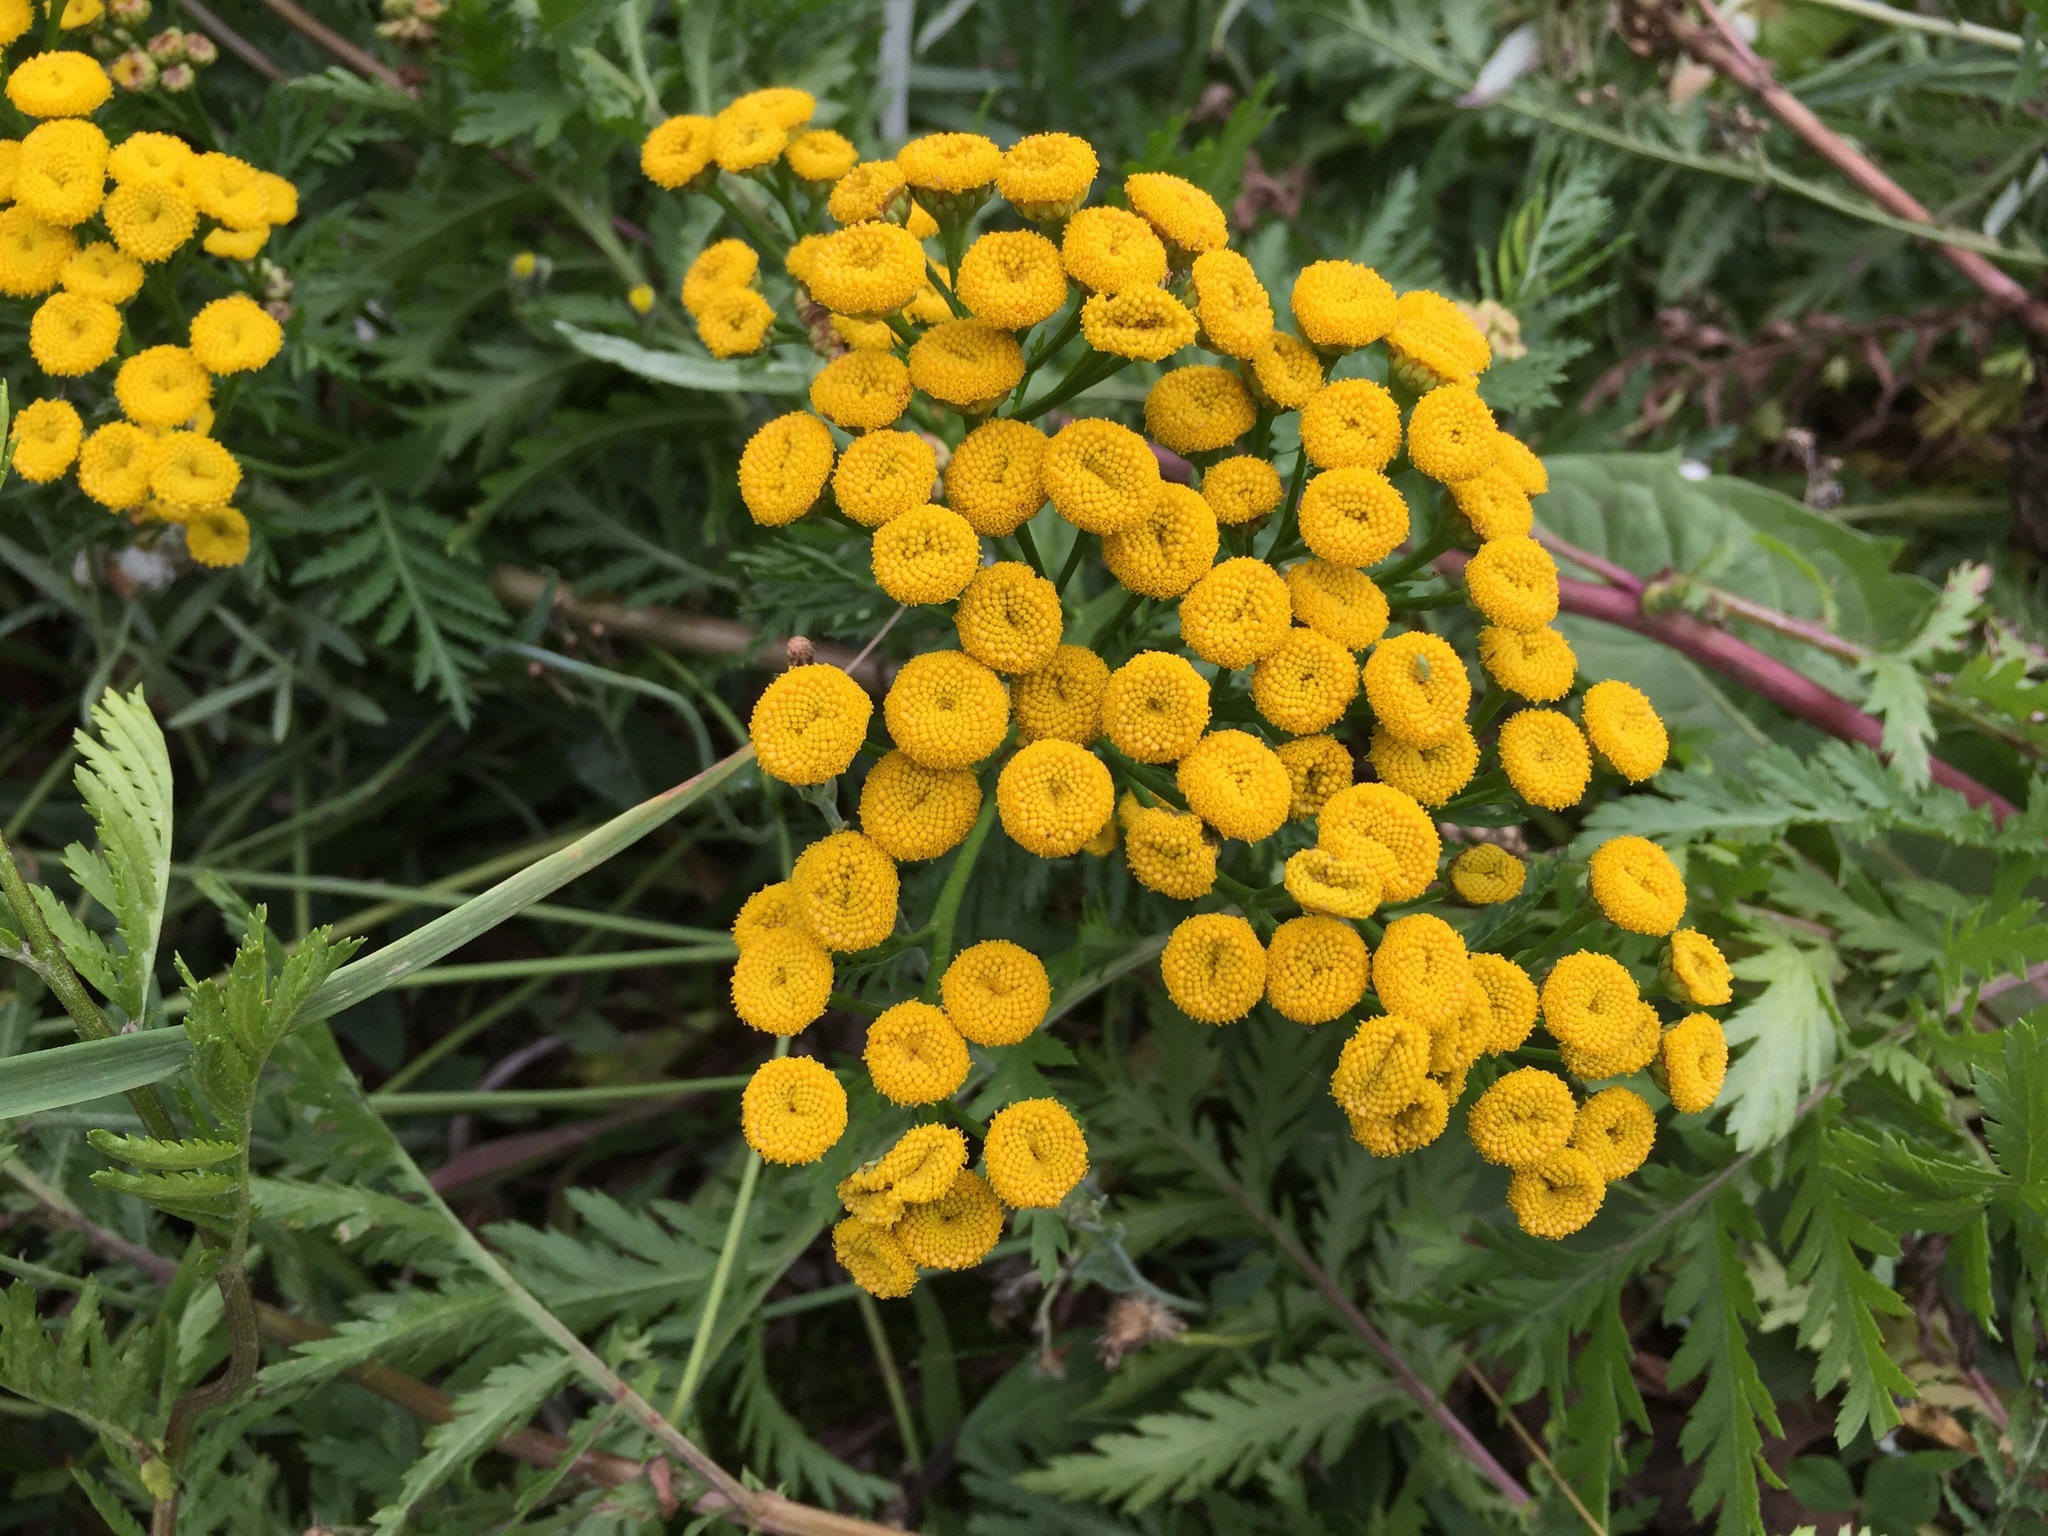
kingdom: Plantae
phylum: Tracheophyta
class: Magnoliopsida
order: Asterales
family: Asteraceae
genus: Tanacetum
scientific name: Tanacetum vulgare
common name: Common tansy
